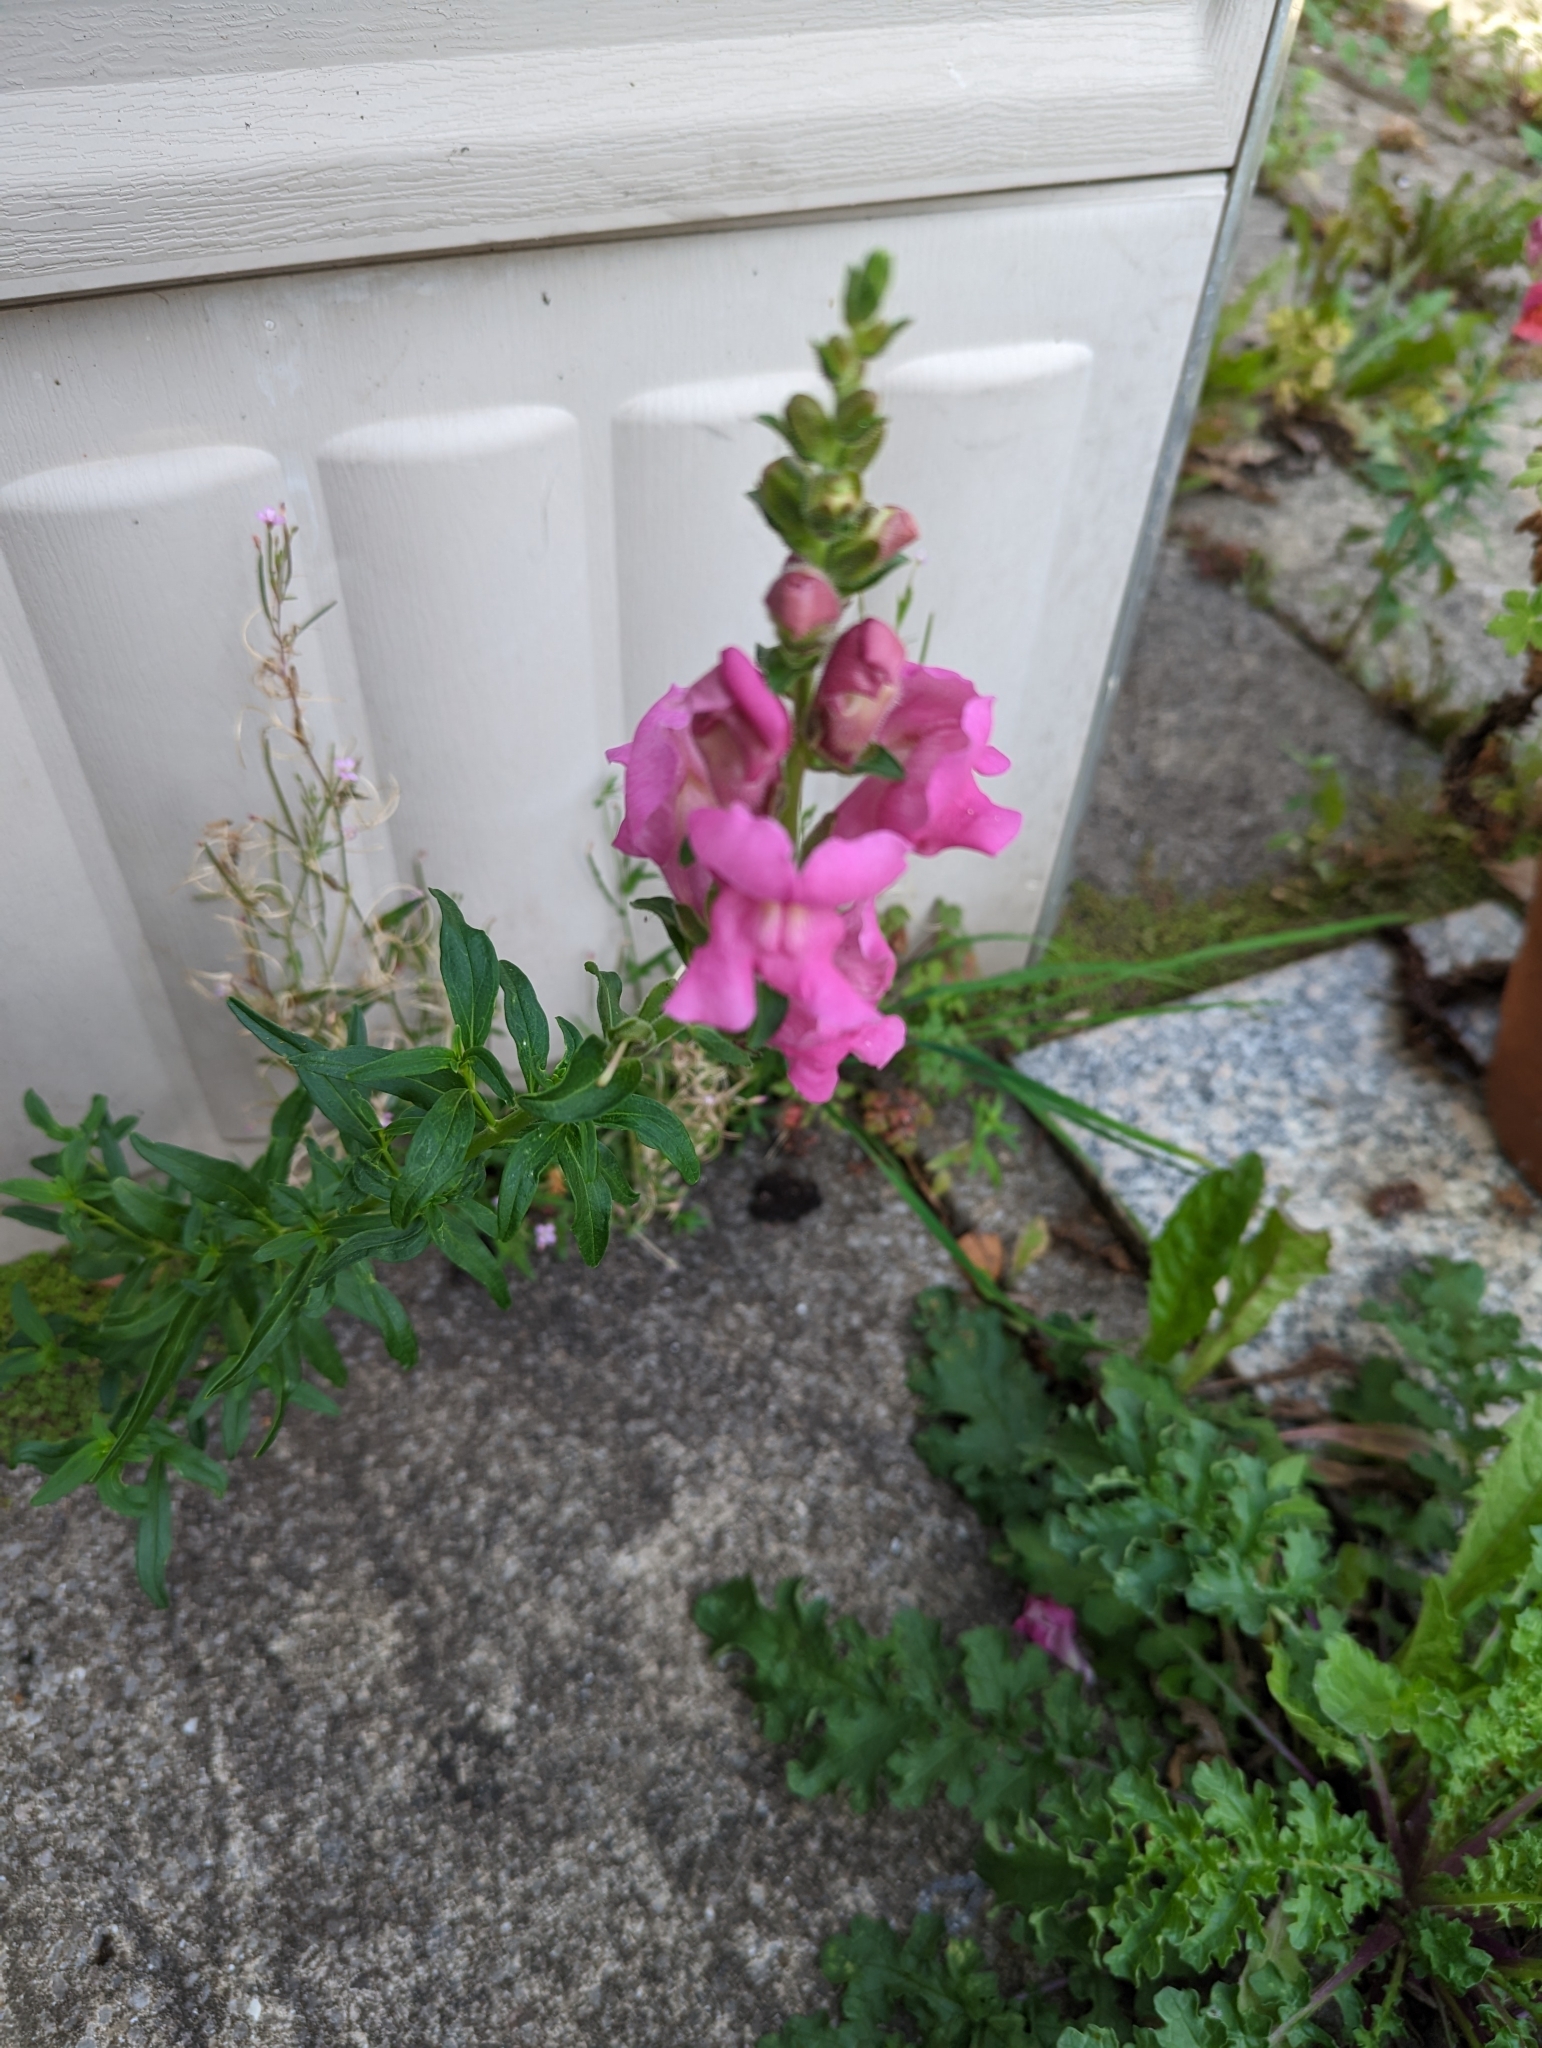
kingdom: Plantae
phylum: Tracheophyta
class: Magnoliopsida
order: Lamiales
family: Plantaginaceae
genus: Antirrhinum
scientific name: Antirrhinum majus
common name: Snapdragon
